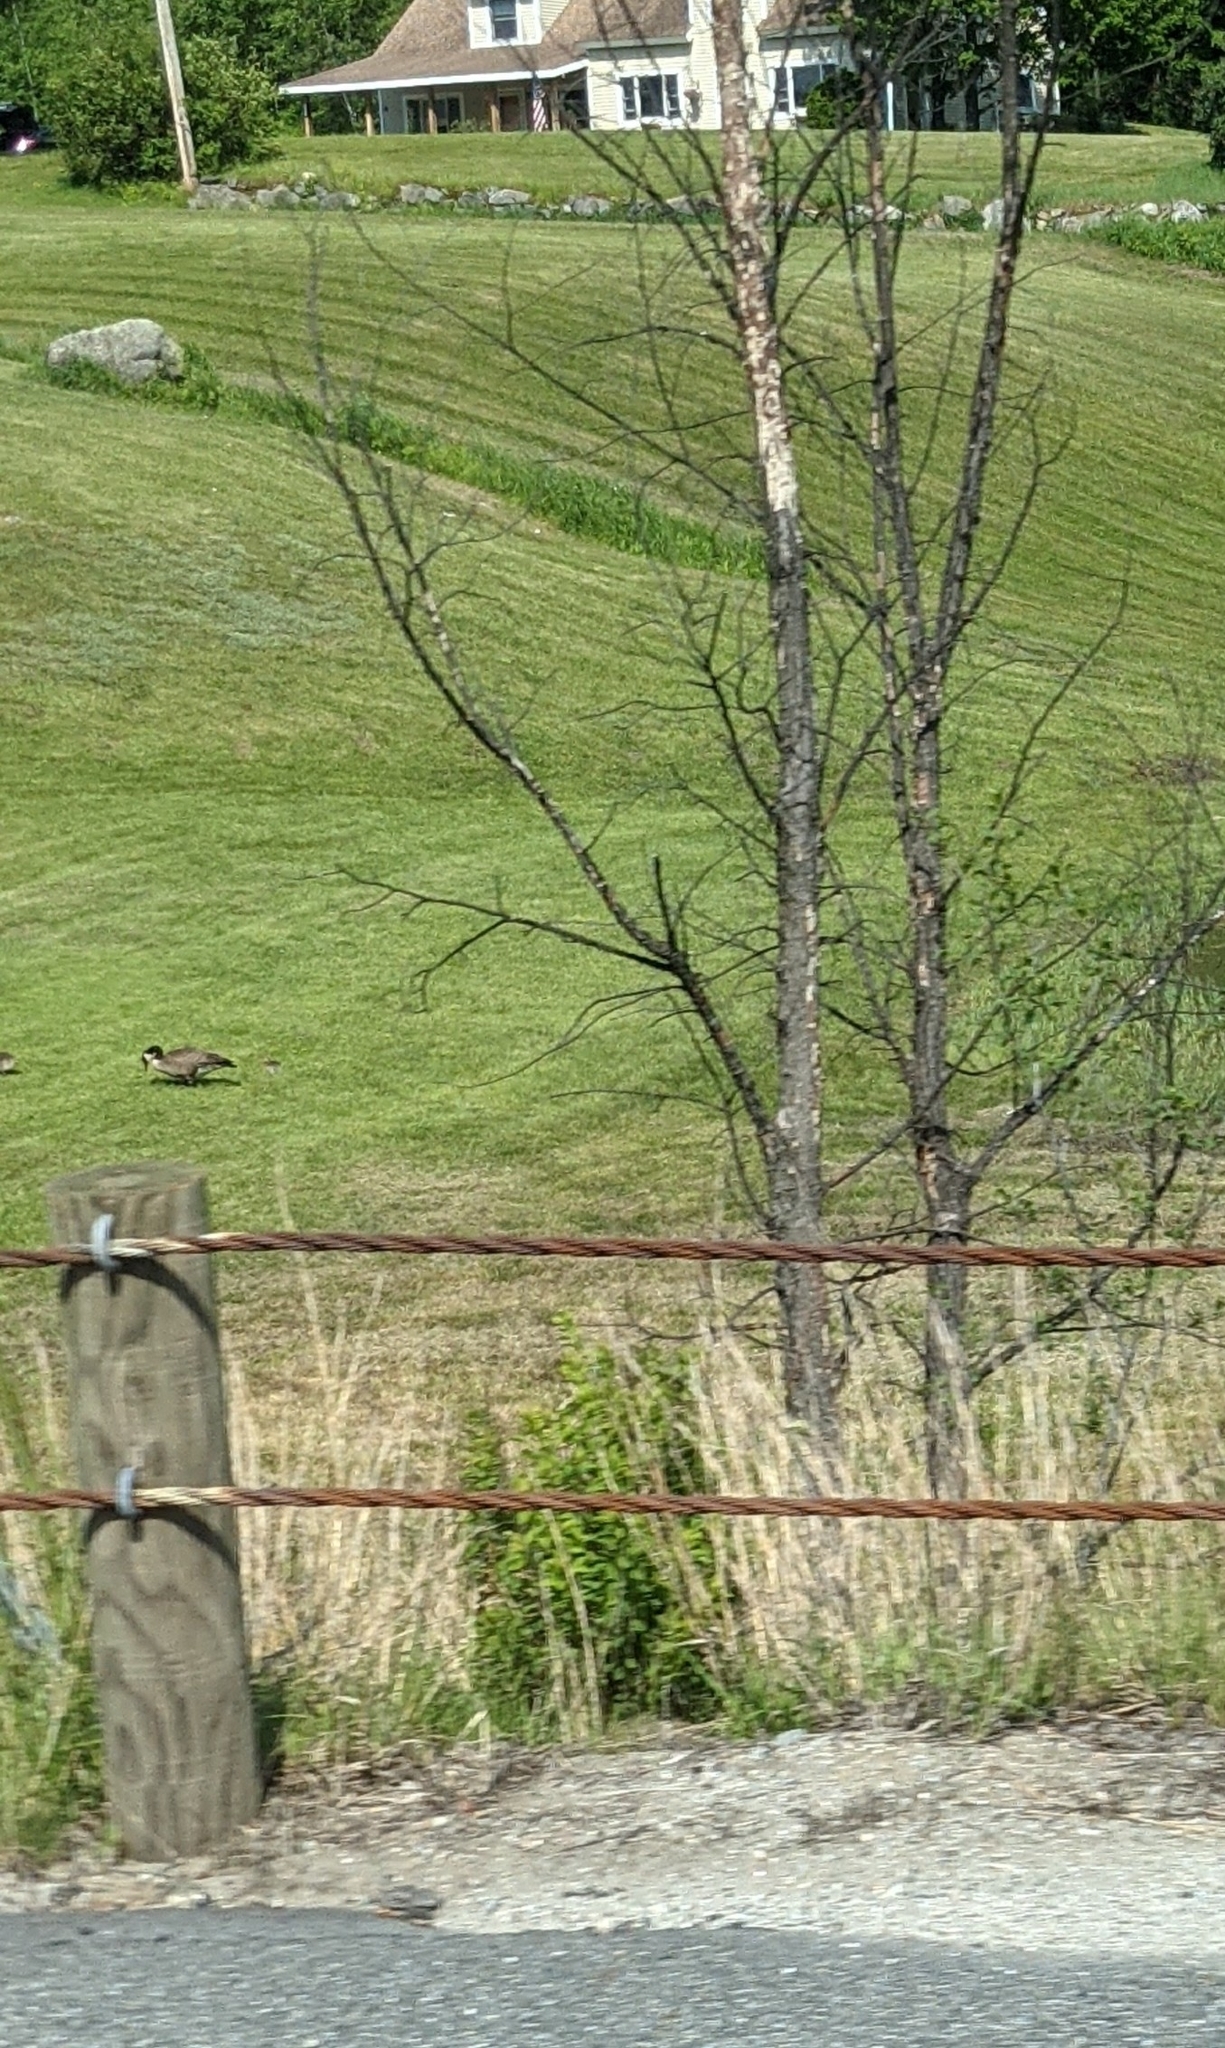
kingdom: Animalia
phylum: Chordata
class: Aves
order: Anseriformes
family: Anatidae
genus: Branta
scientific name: Branta canadensis
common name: Canada goose
